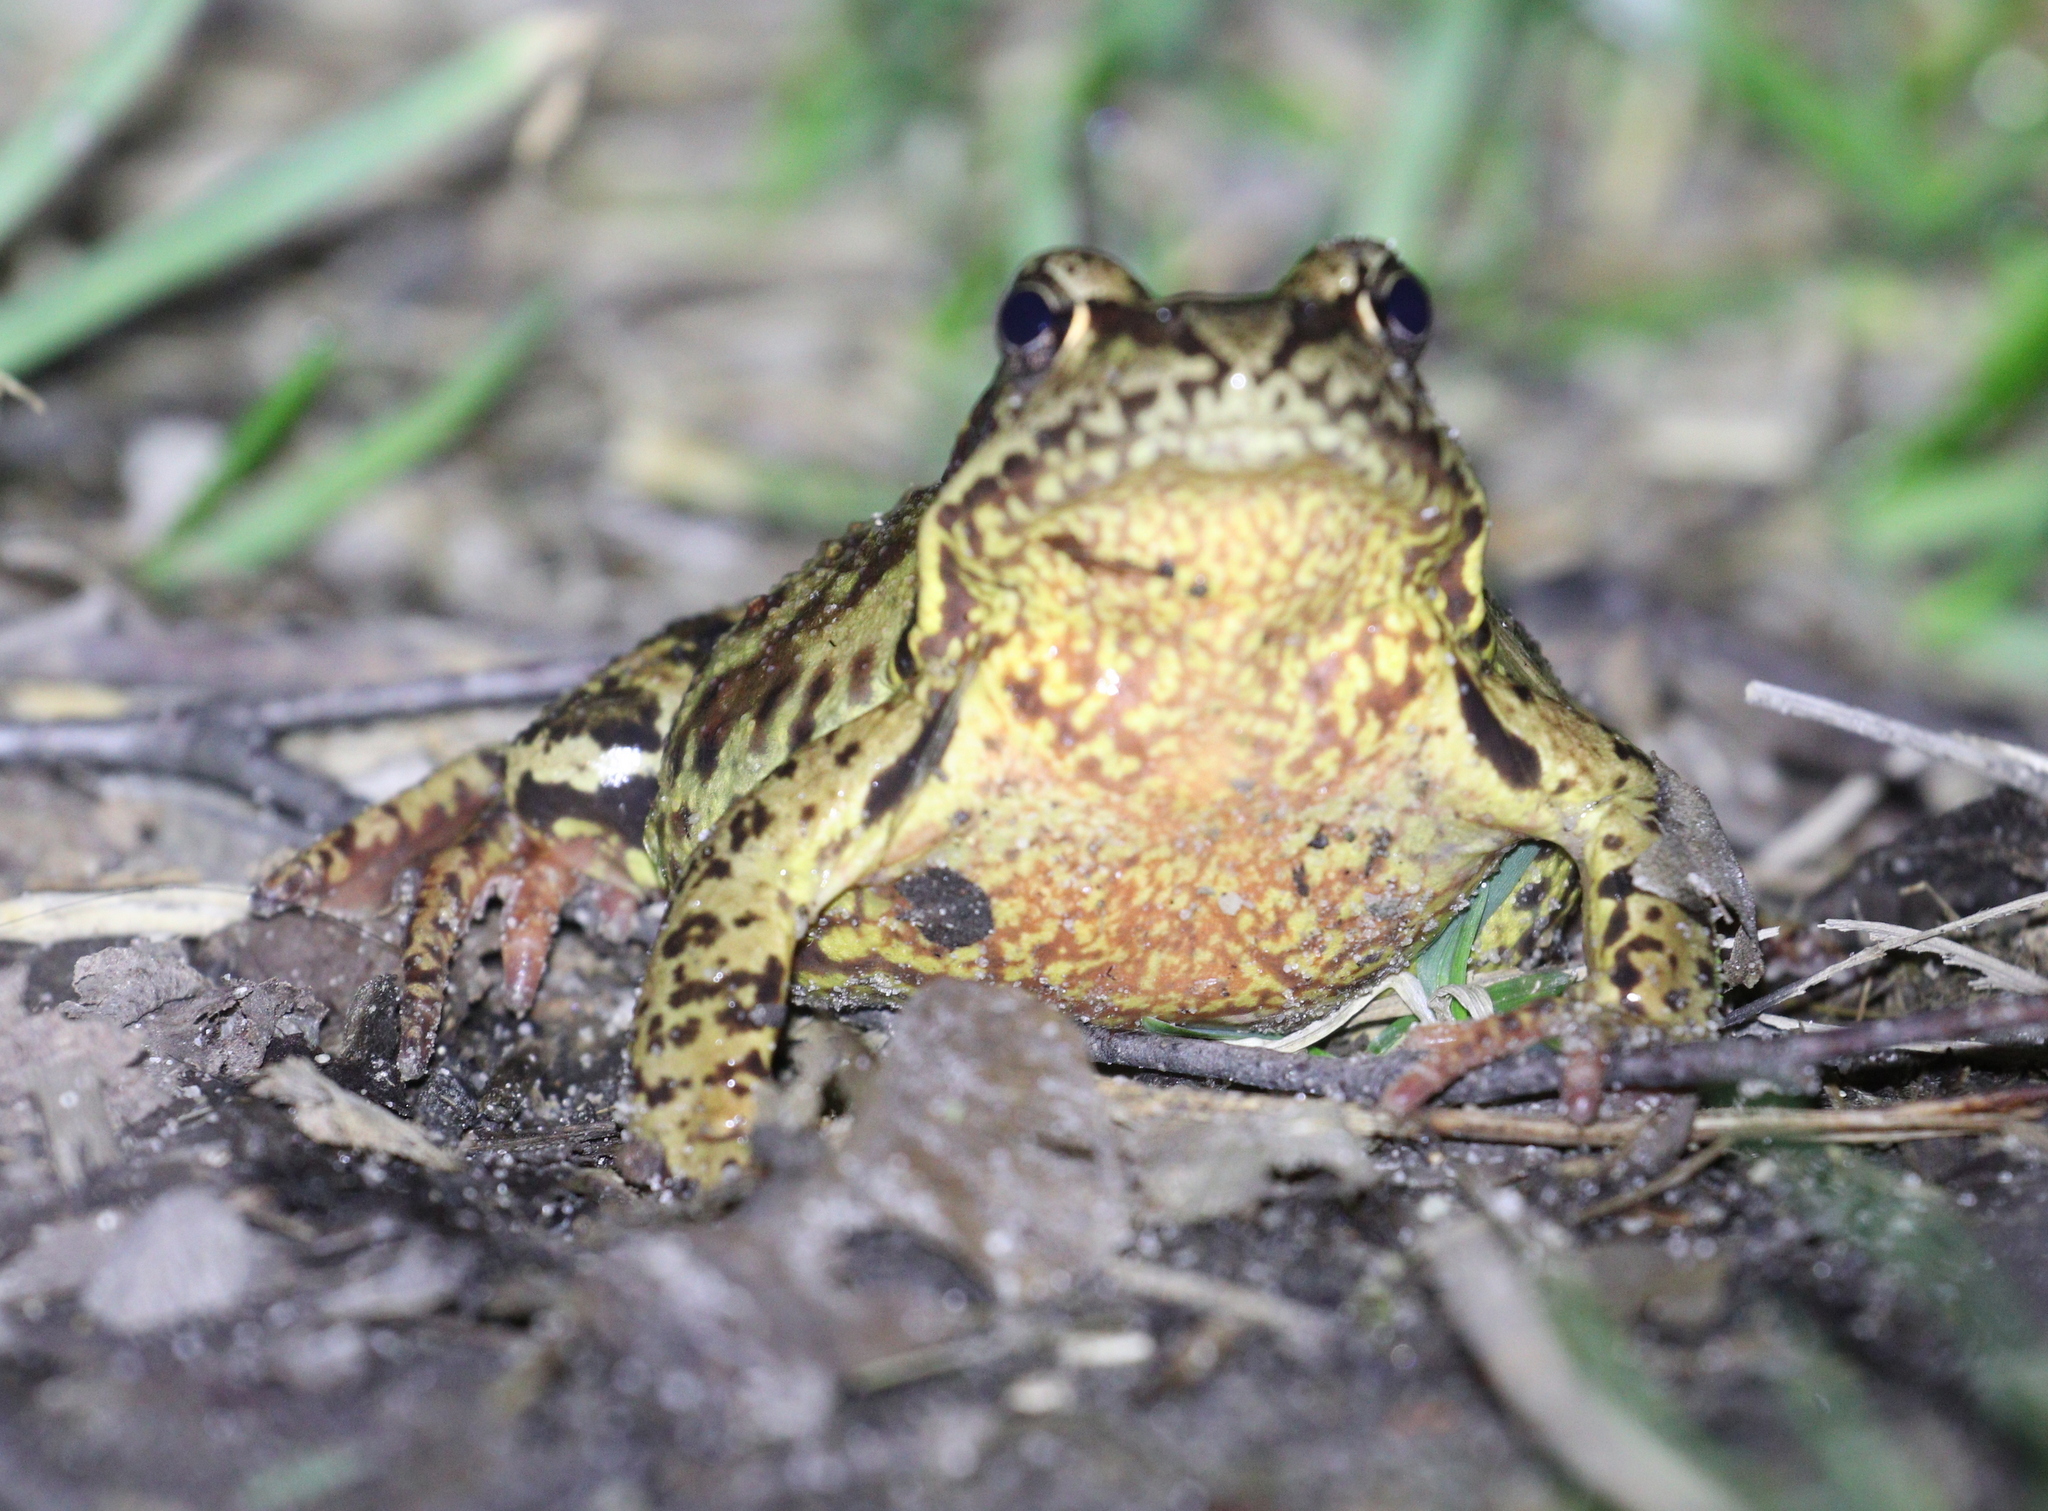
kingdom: Animalia
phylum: Chordata
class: Amphibia
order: Anura
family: Ranidae
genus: Rana
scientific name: Rana temporaria
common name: Common frog
